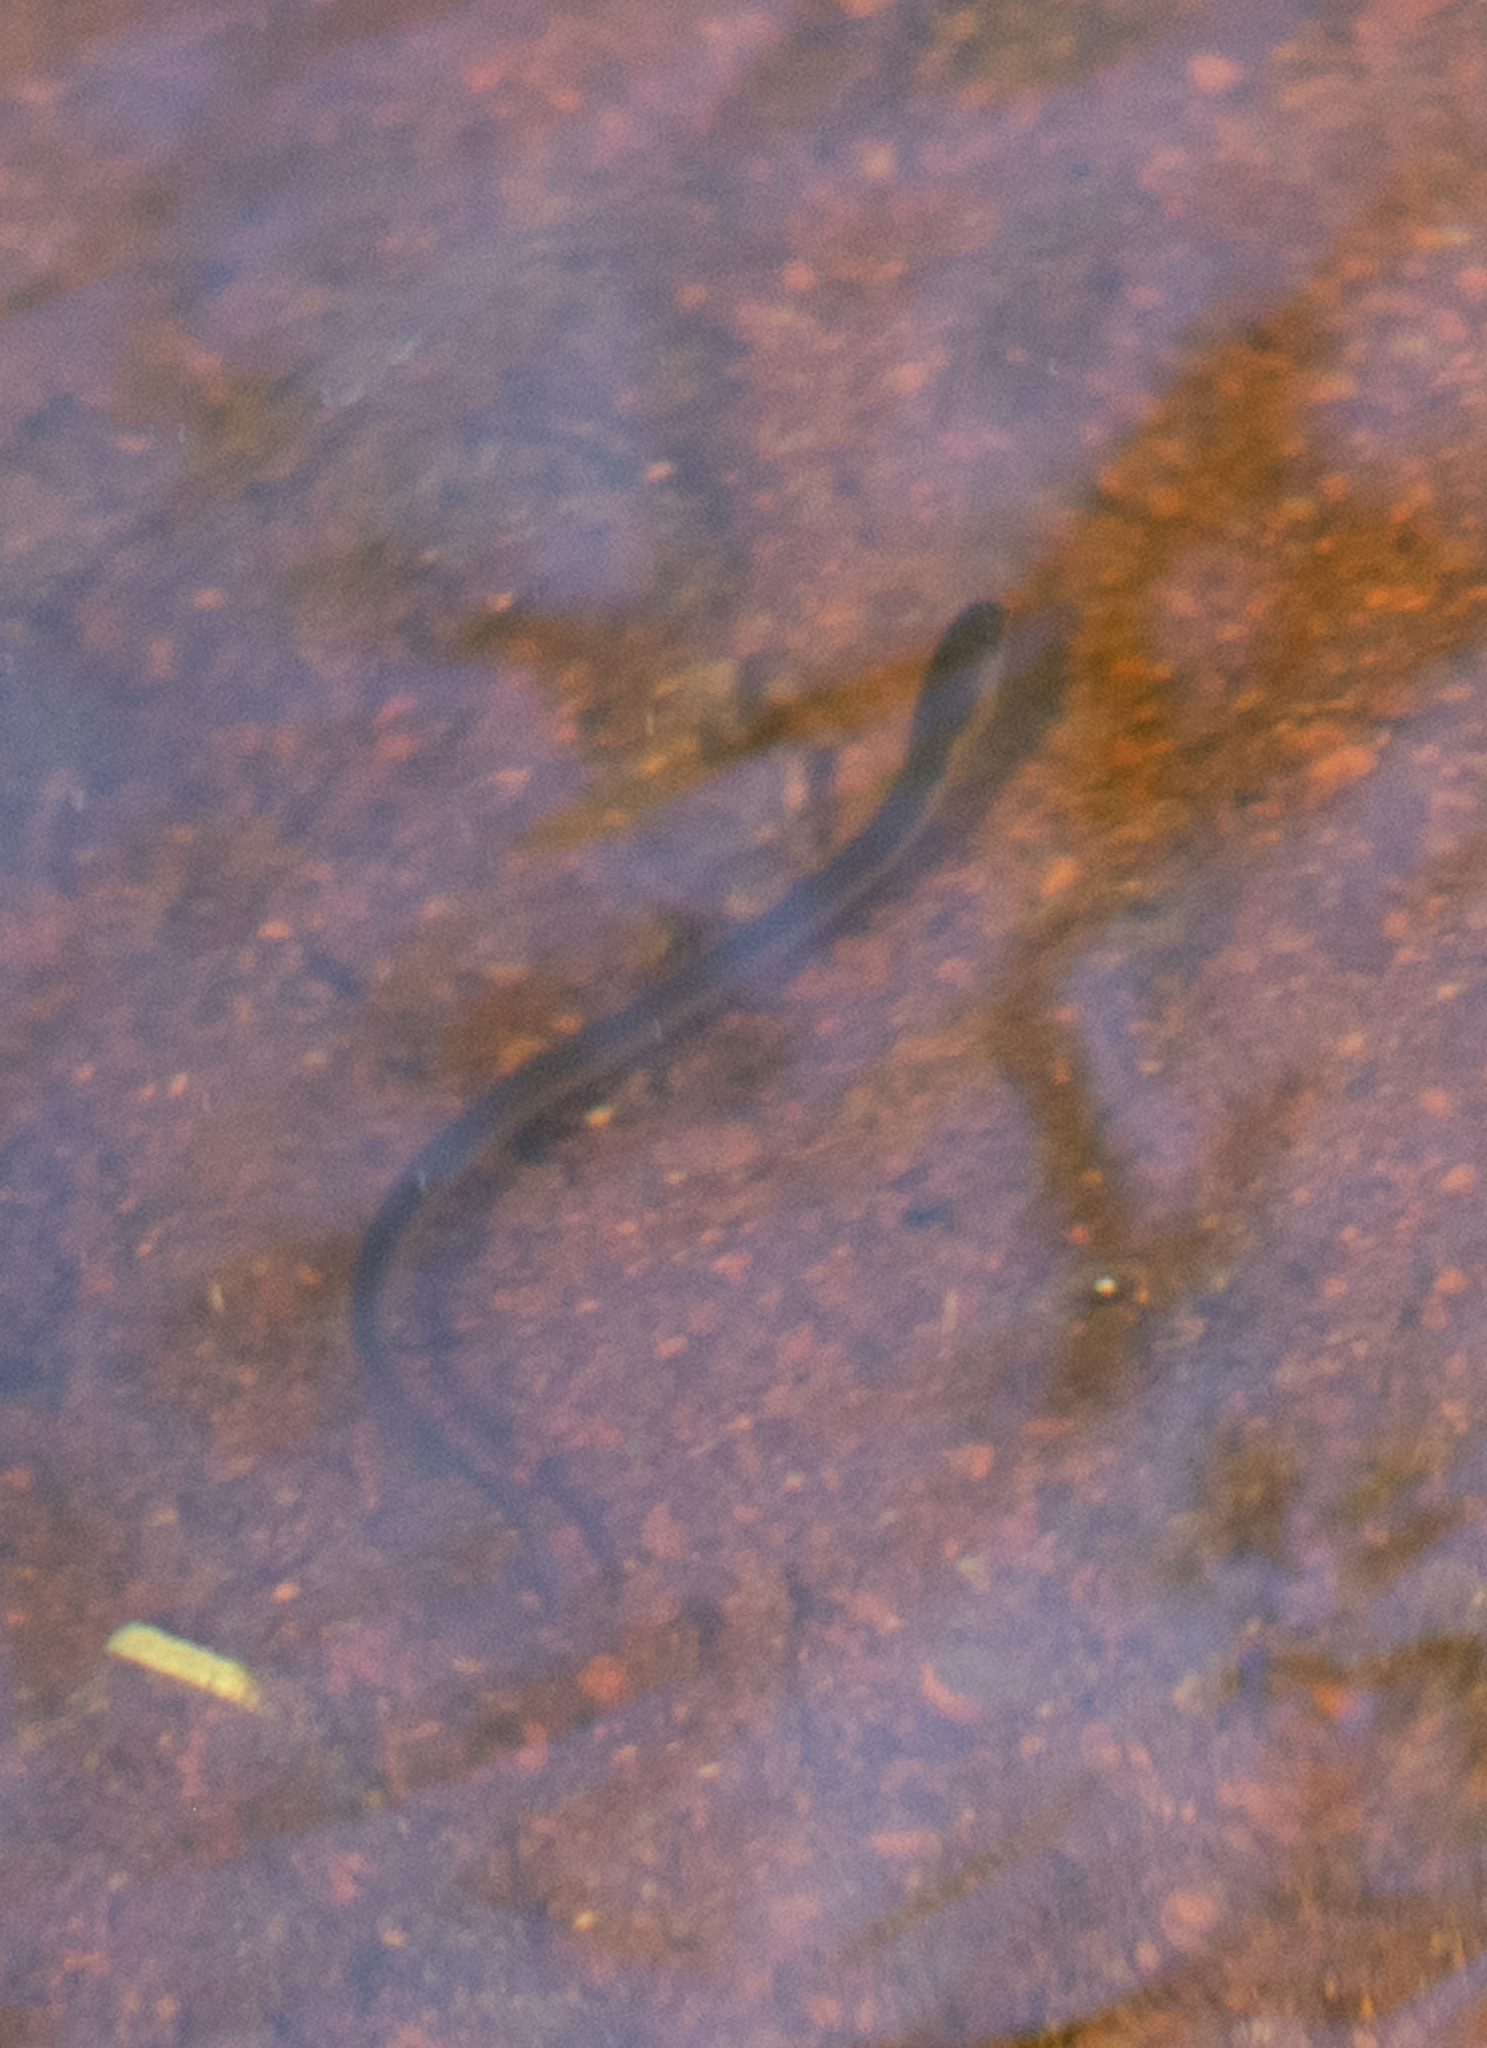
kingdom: Animalia
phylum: Chordata
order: Anguilliformes
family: Anguillidae
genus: Anguilla
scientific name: Anguilla rostrata
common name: American eel
